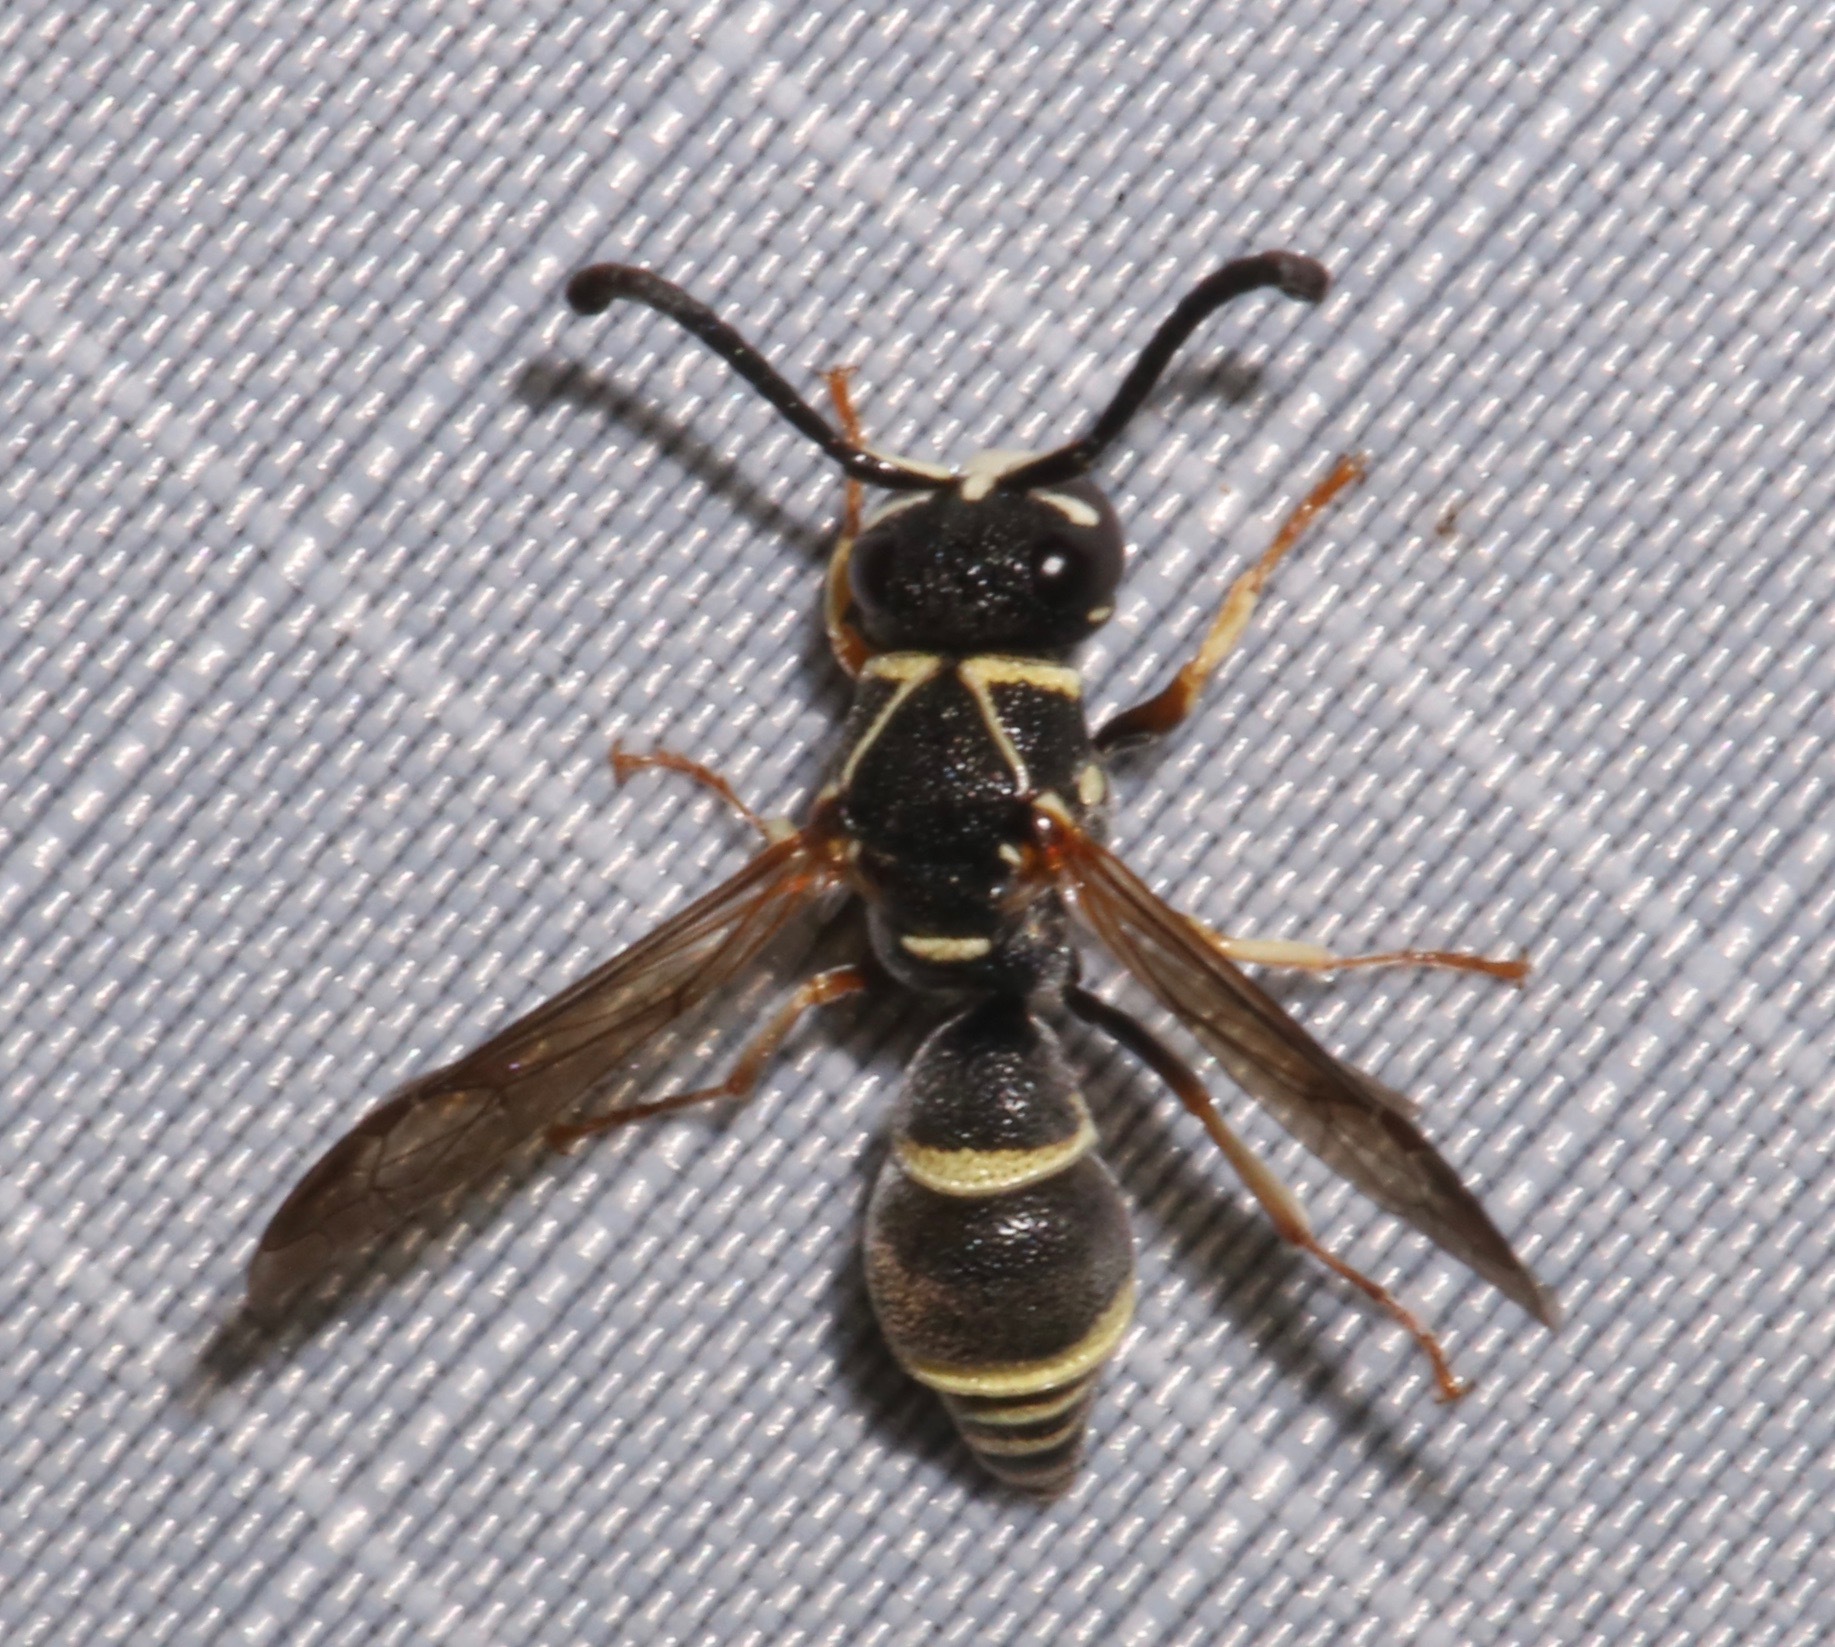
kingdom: Animalia
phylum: Arthropoda
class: Insecta
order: Hymenoptera
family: Eumenidae
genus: Rhynchalastor
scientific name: Rhynchalastor ochrogonius
